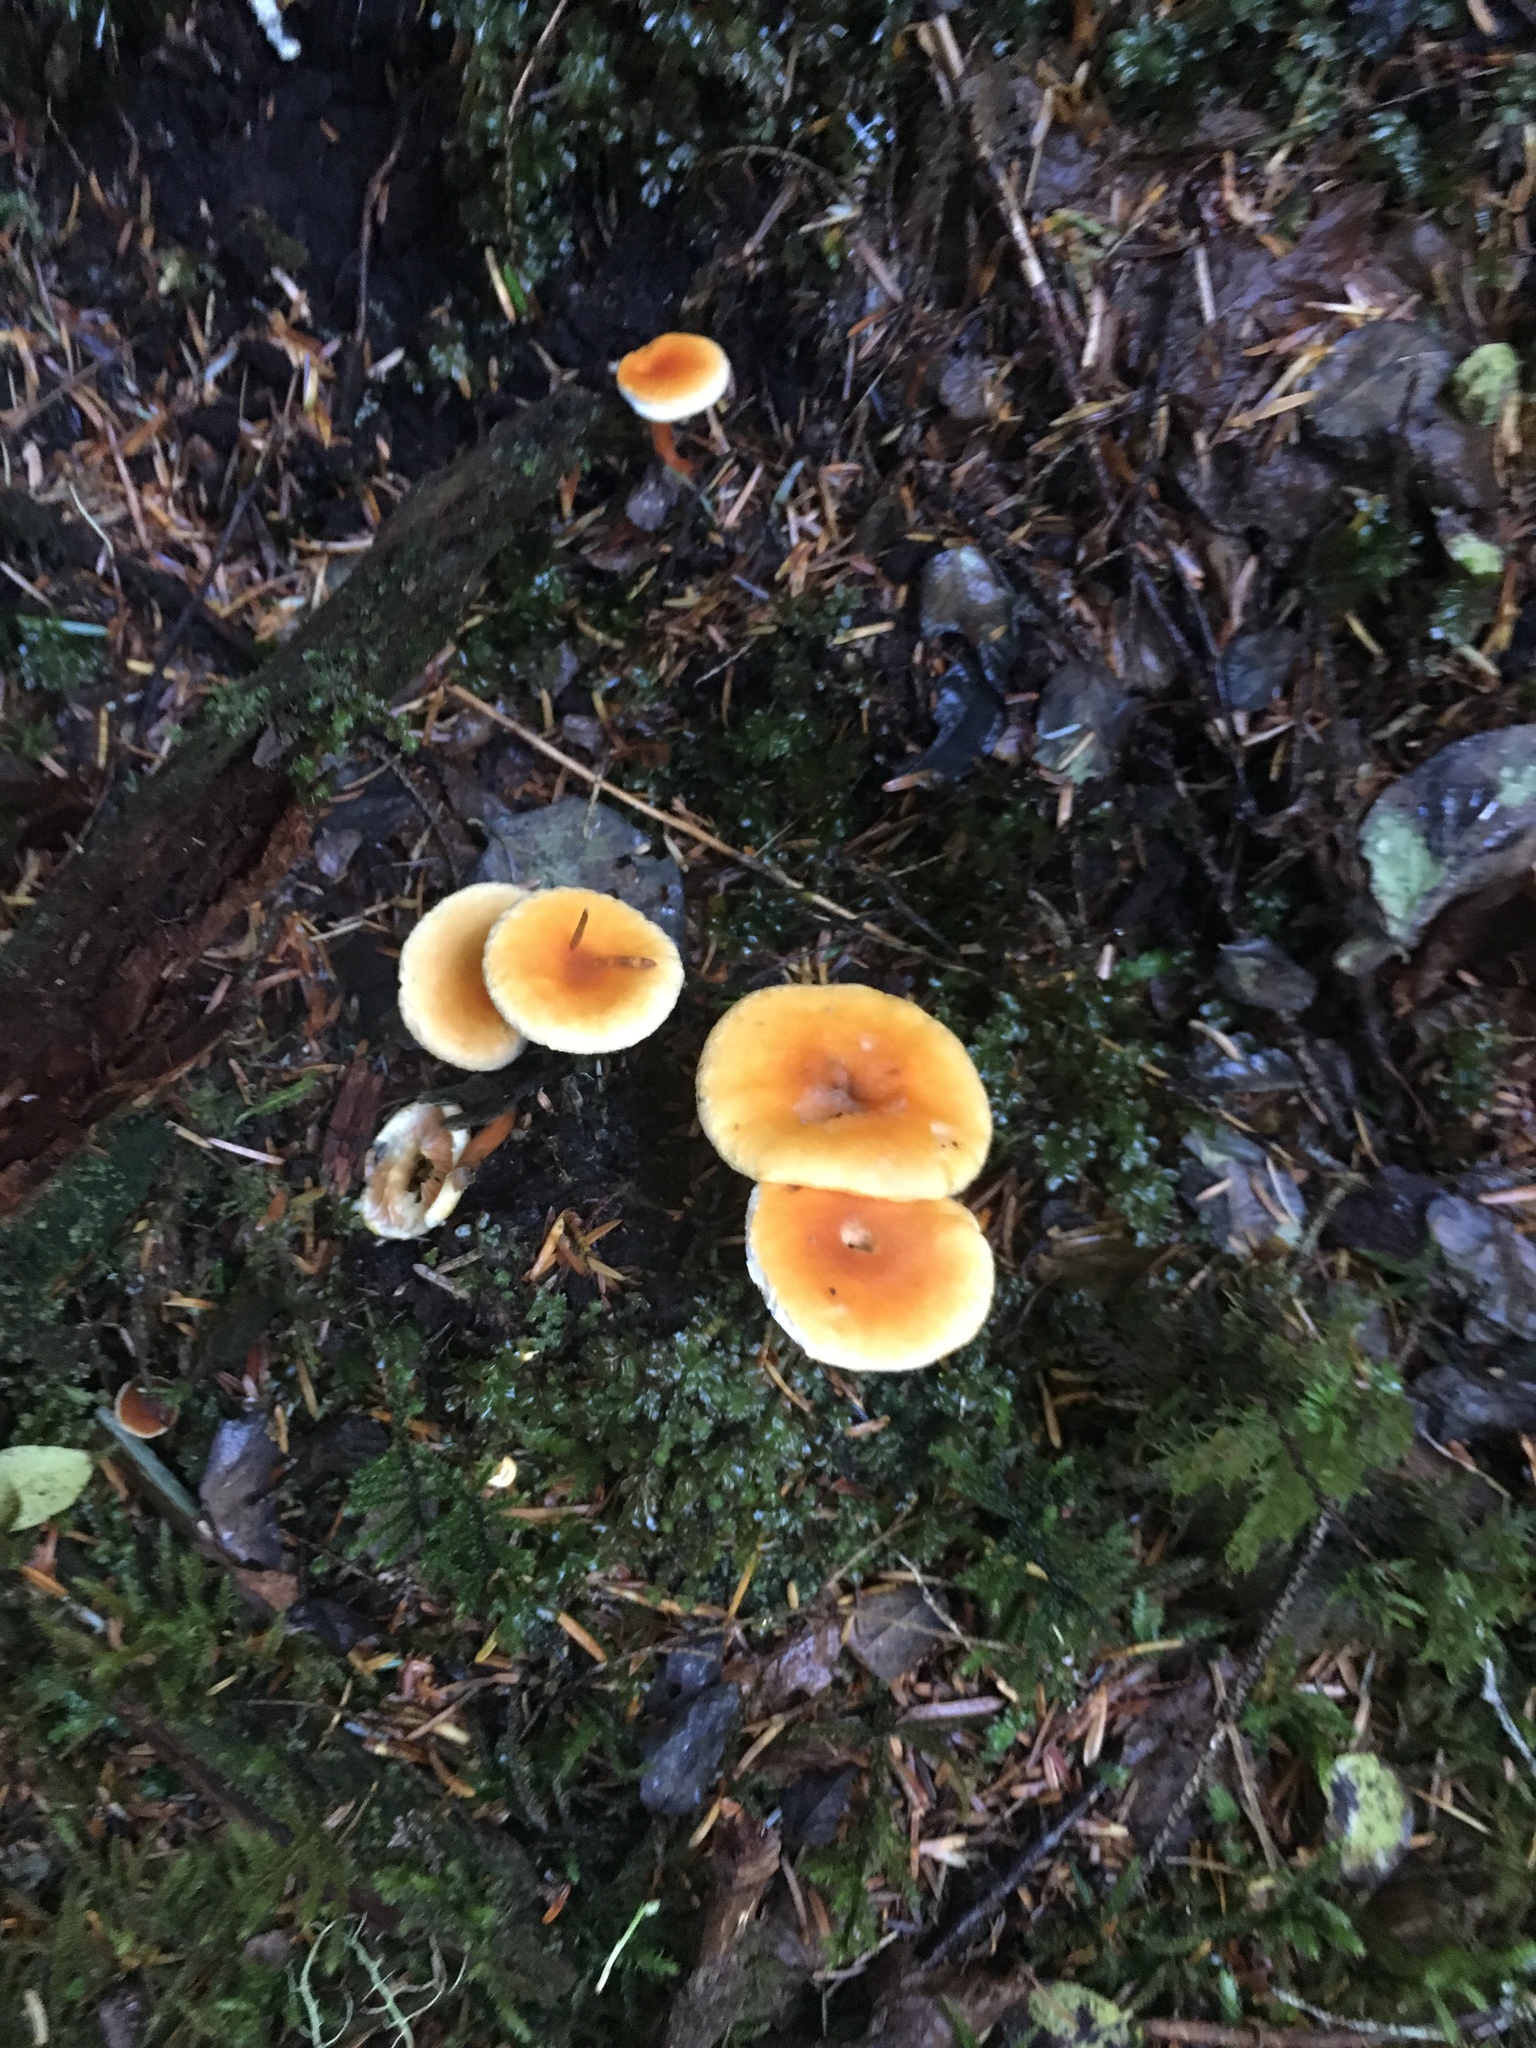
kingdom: Fungi
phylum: Basidiomycota
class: Agaricomycetes
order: Boletales
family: Hygrophoropsidaceae
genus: Hygrophoropsis
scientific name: Hygrophoropsis aurantiaca
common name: False chanterelle
